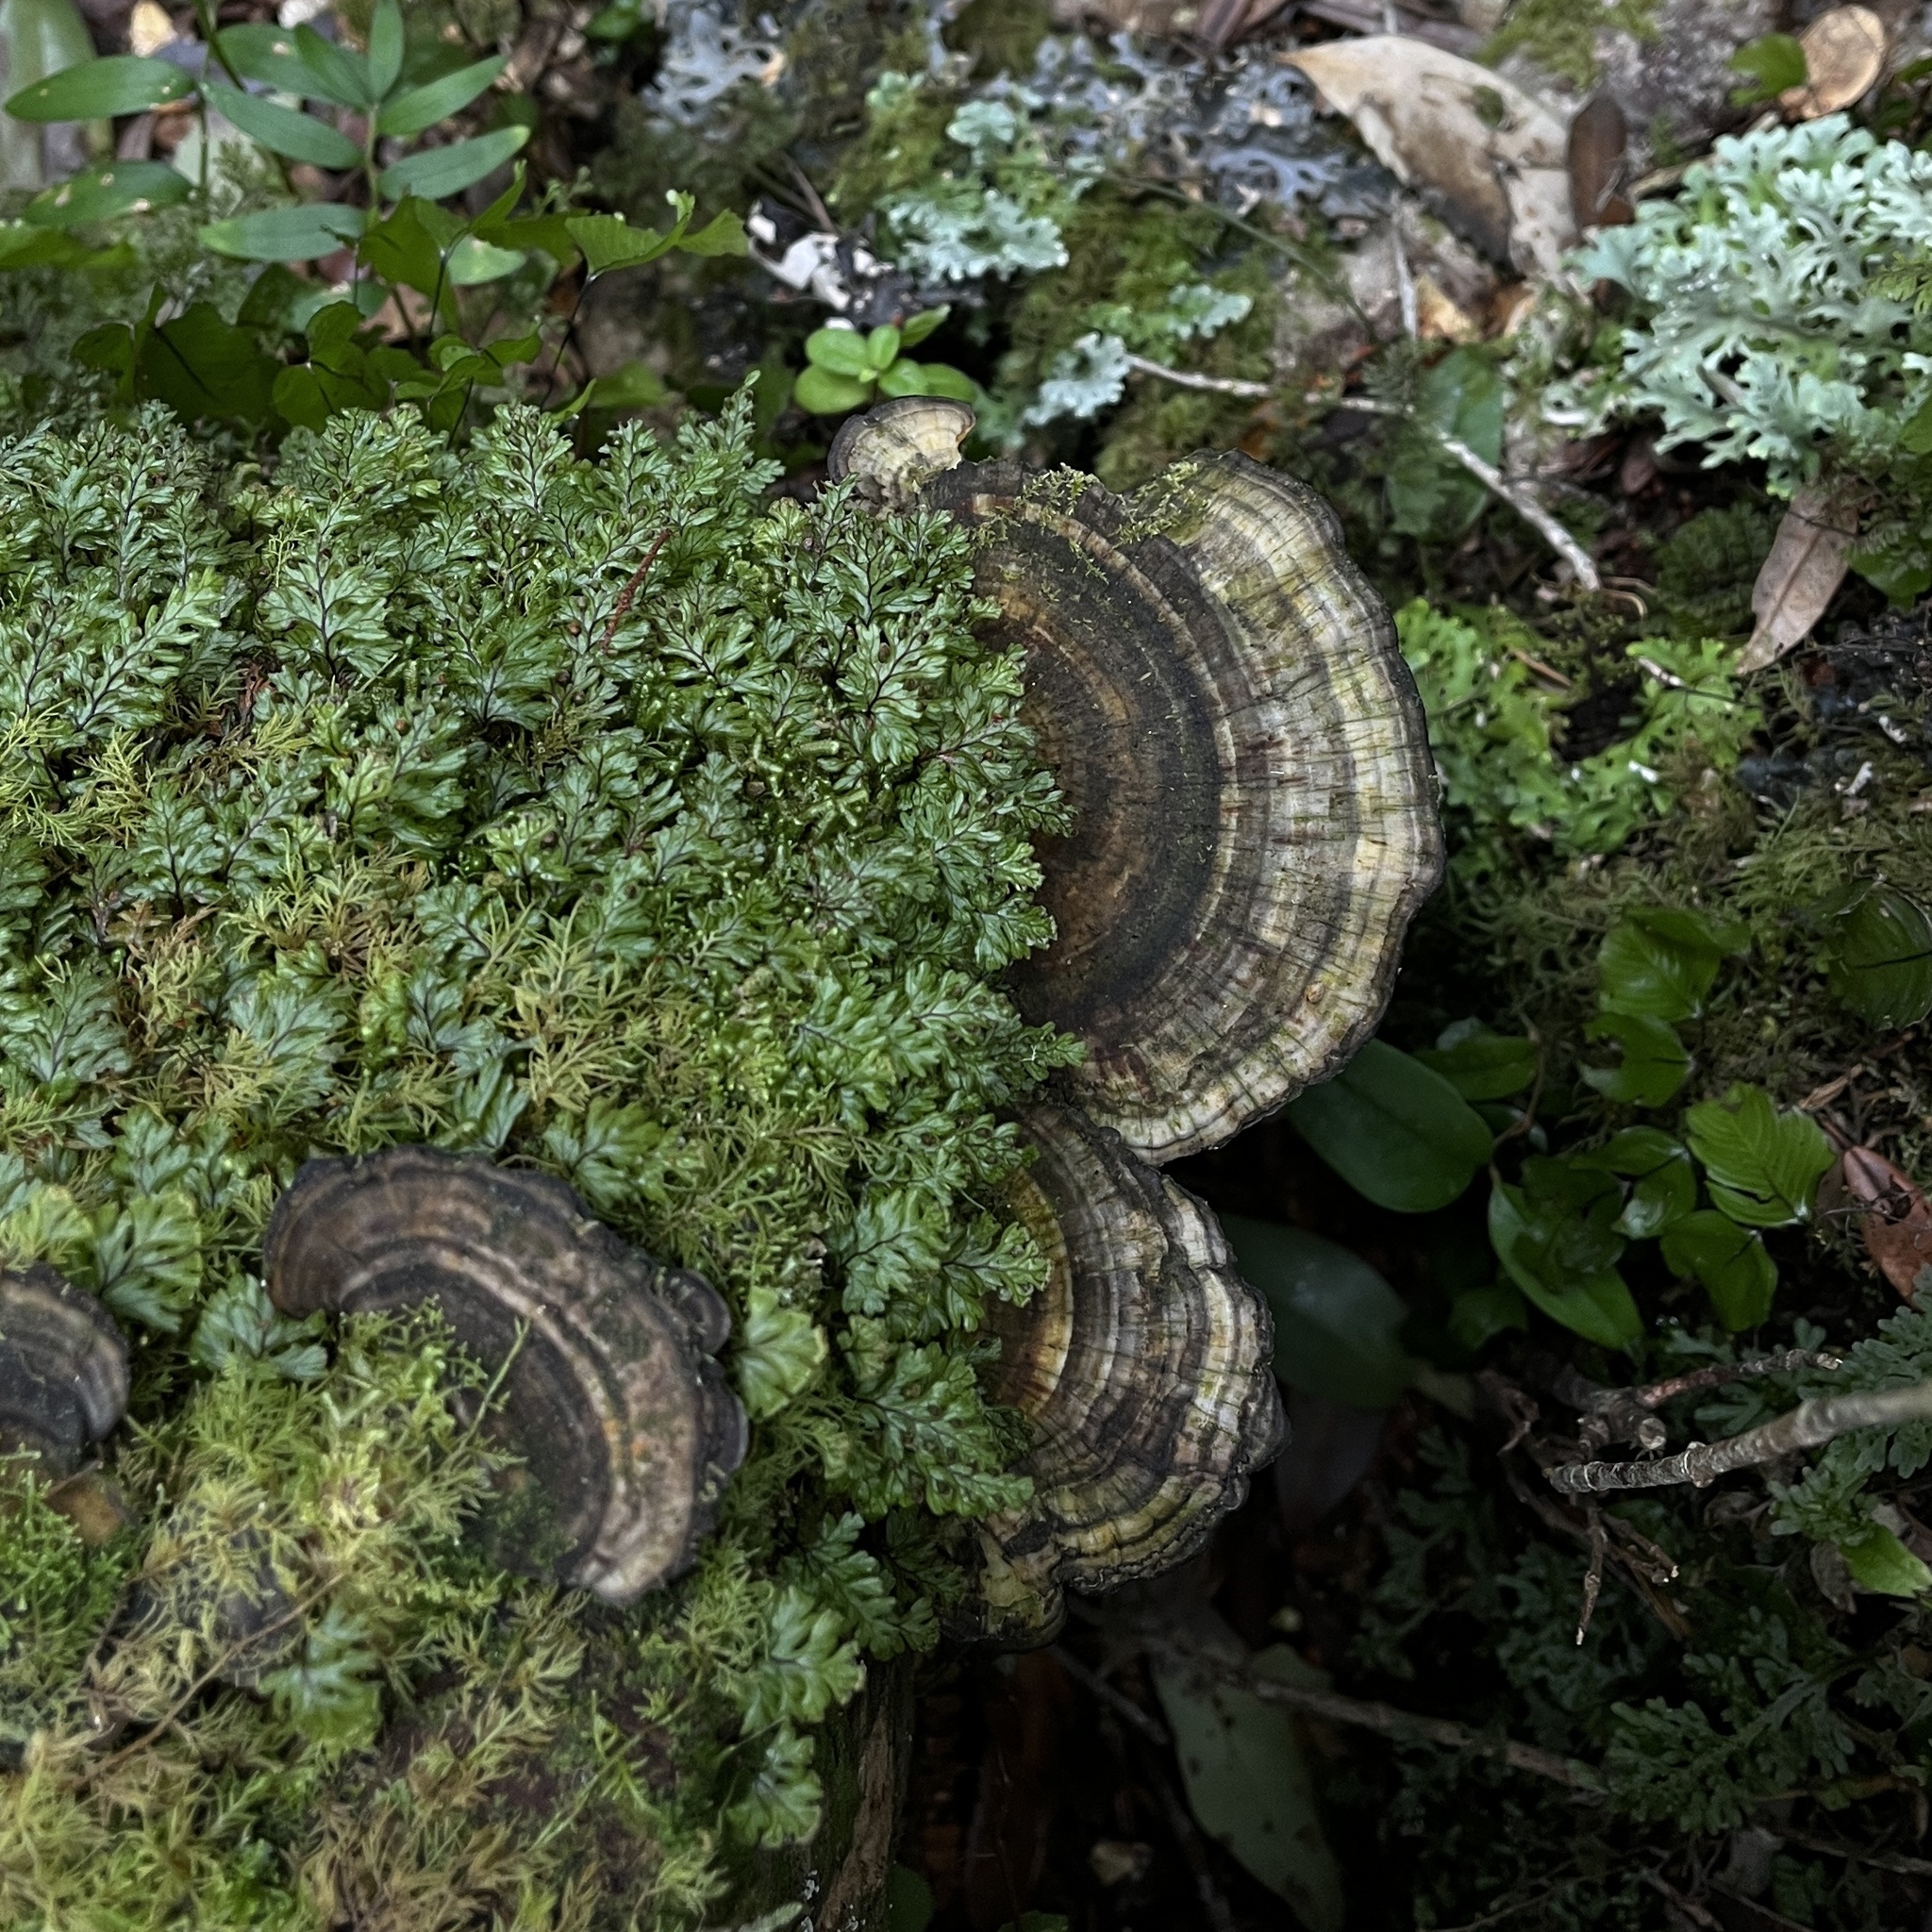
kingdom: Fungi
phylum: Basidiomycota
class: Agaricomycetes
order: Polyporales
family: Polyporaceae
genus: Trametes
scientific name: Trametes versicolor
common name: Turkeytail
